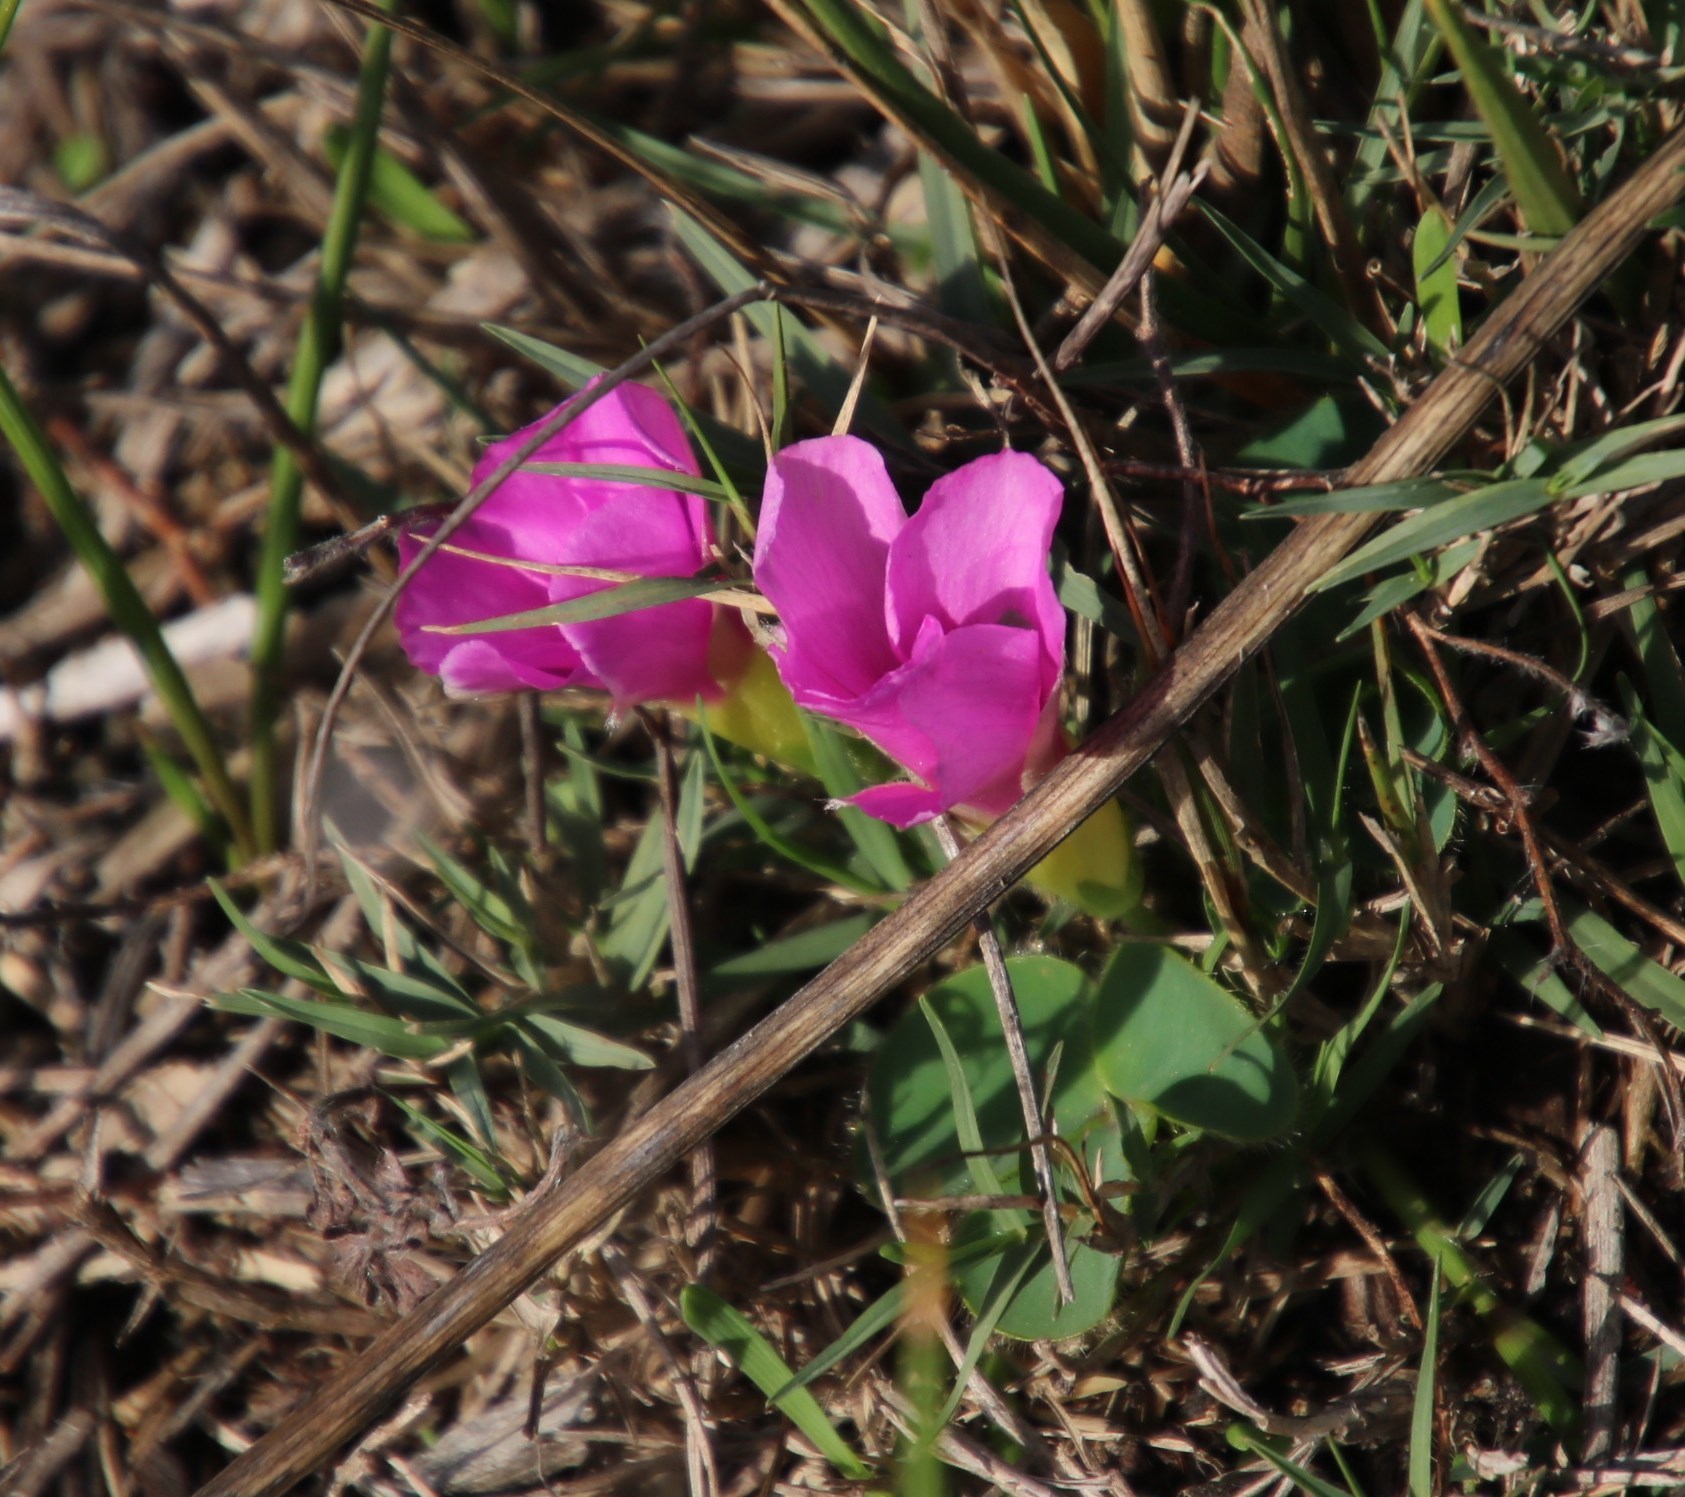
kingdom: Plantae
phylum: Tracheophyta
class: Magnoliopsida
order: Oxalidales
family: Oxalidaceae
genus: Oxalis
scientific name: Oxalis purpurea
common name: Purple woodsorrel
